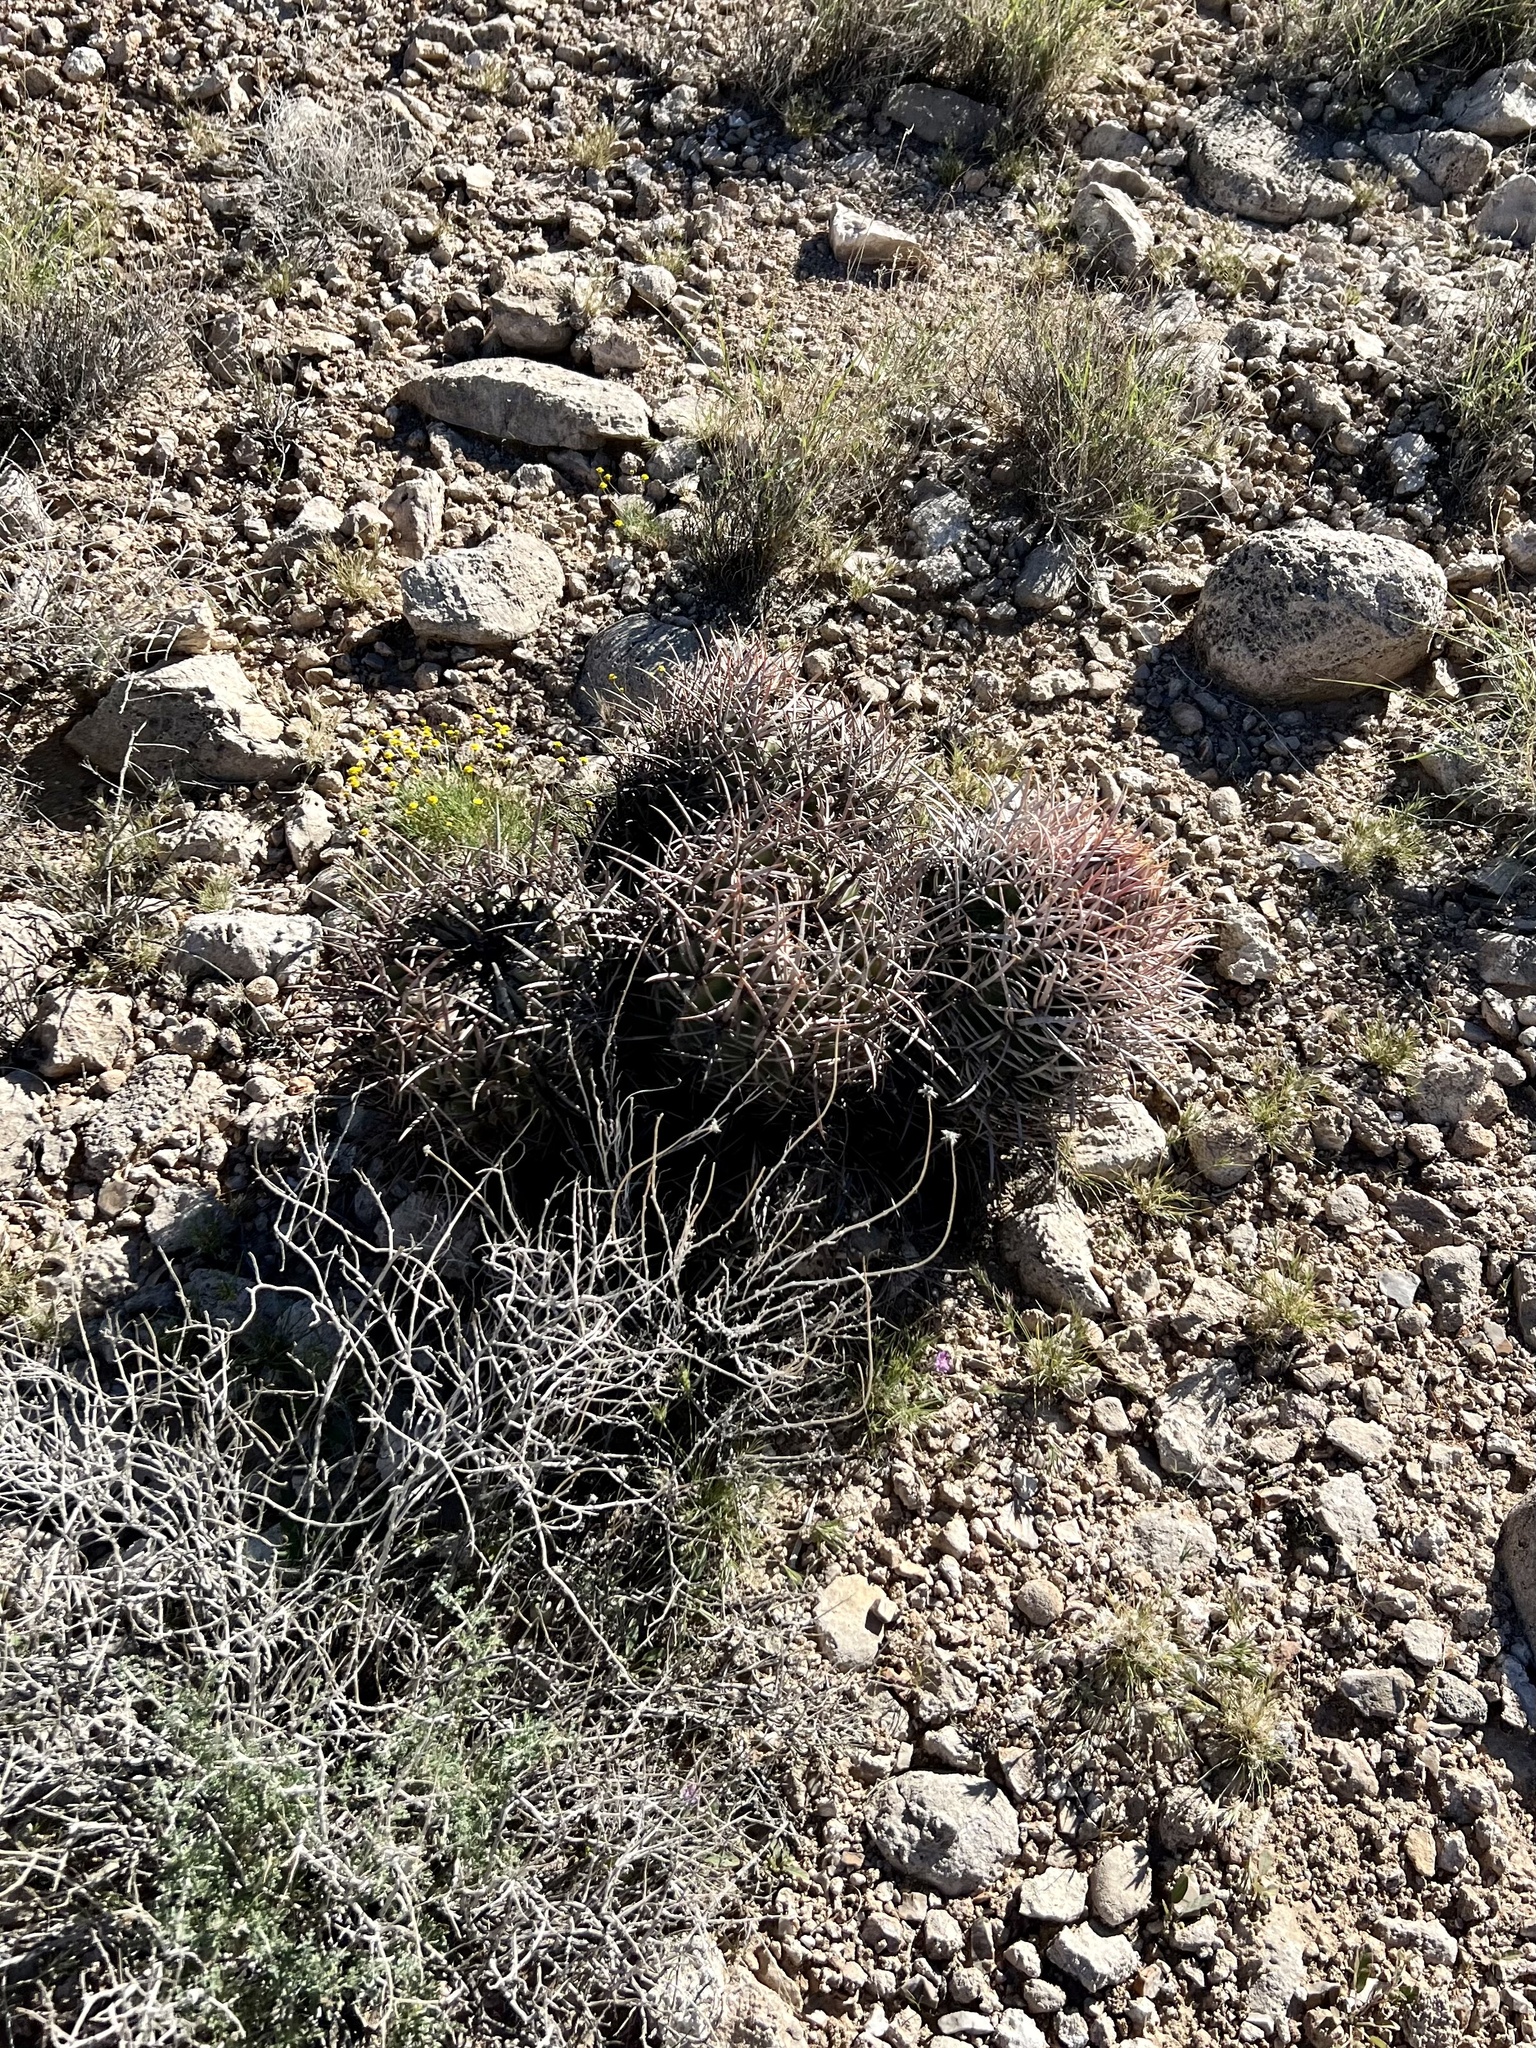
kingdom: Plantae
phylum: Tracheophyta
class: Magnoliopsida
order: Caryophyllales
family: Cactaceae
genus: Echinocactus
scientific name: Echinocactus polycephalus
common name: Cottontop cactus
